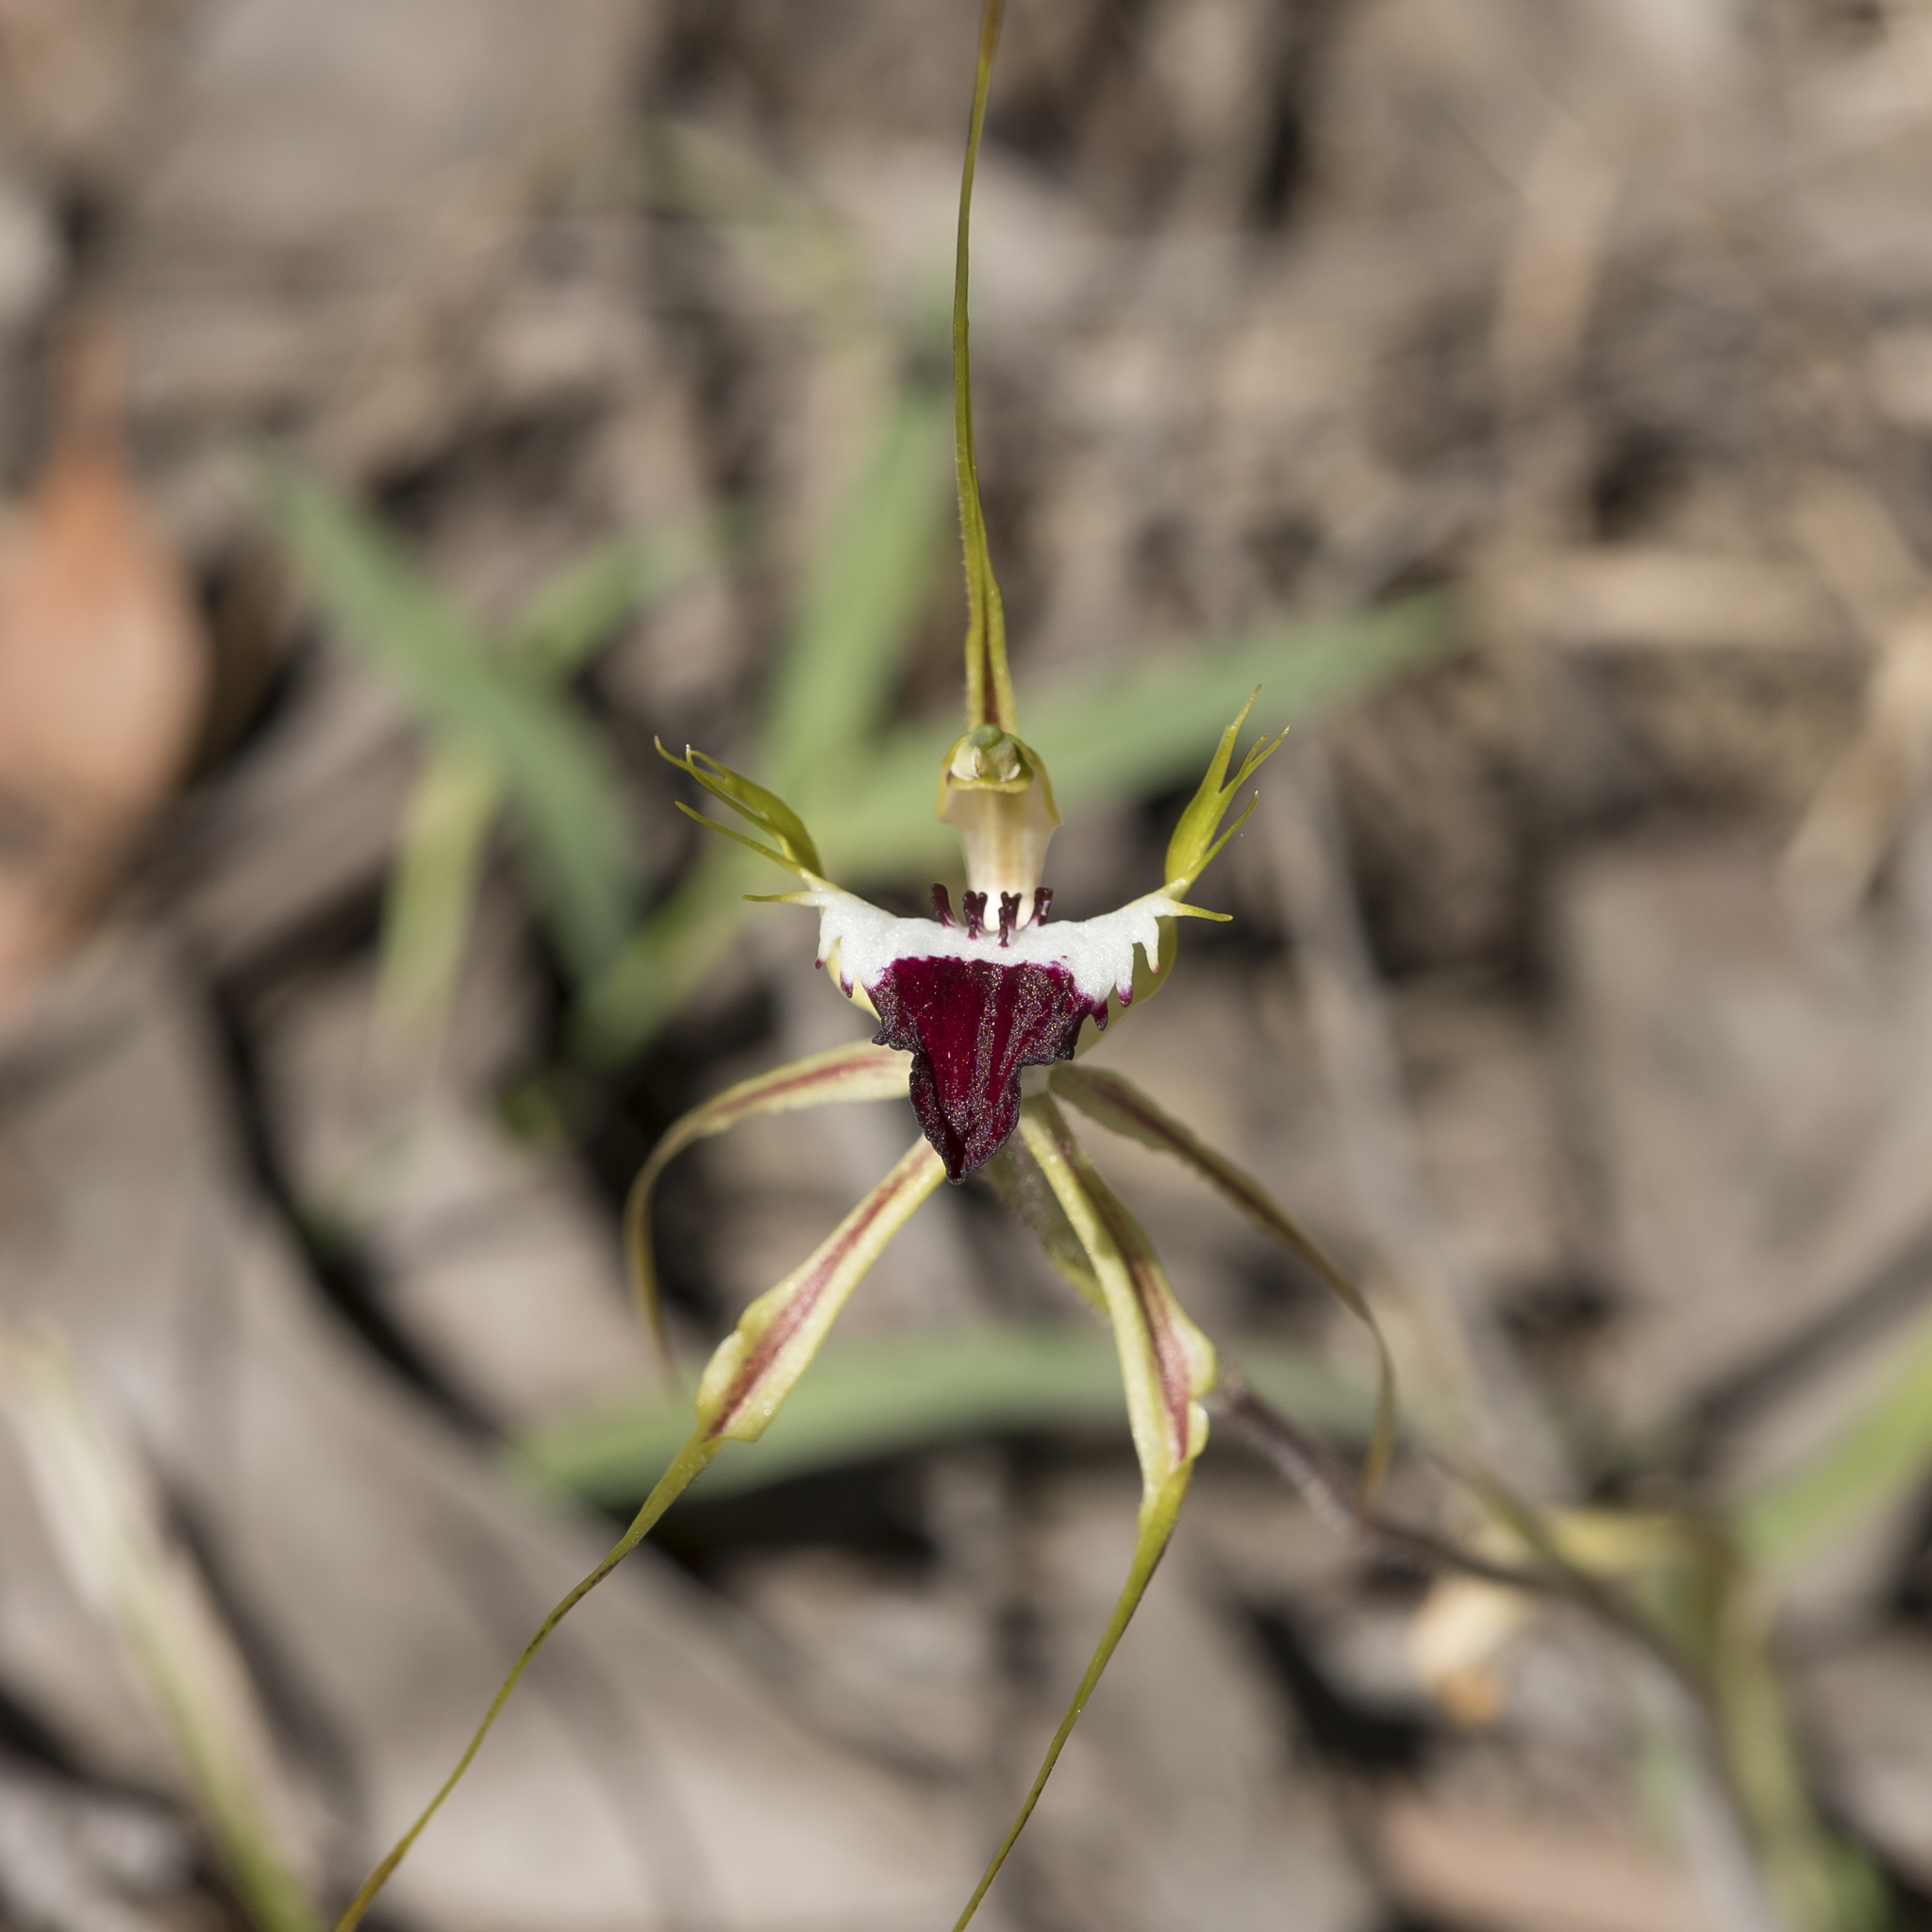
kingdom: Plantae
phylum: Tracheophyta
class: Liliopsida
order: Asparagales
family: Orchidaceae
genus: Caladenia
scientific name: Caladenia tentaculata
